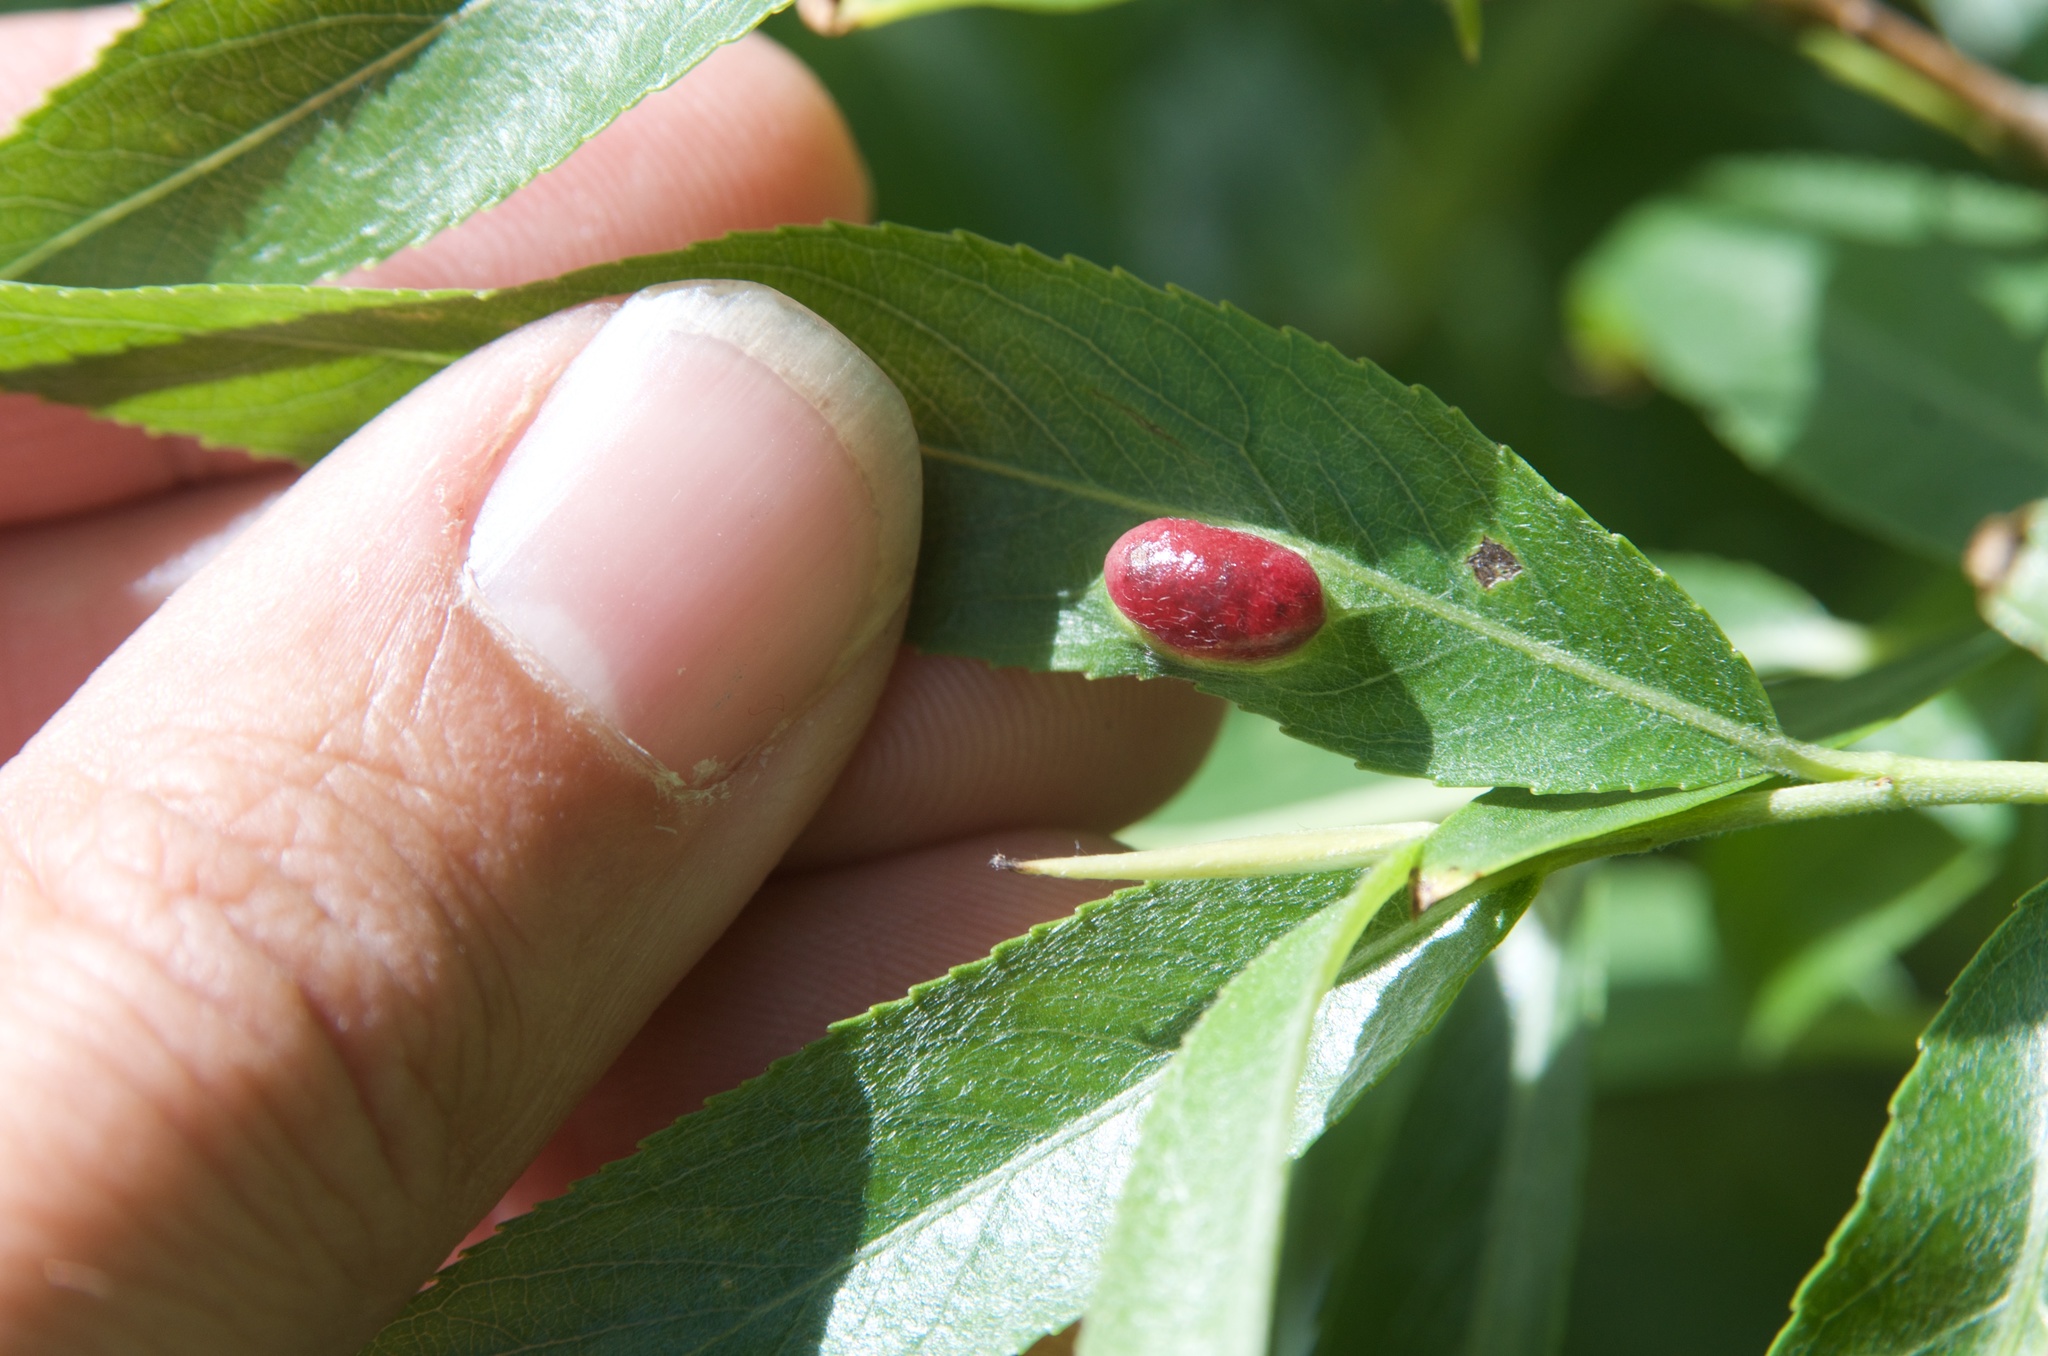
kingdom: Animalia
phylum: Arthropoda
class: Insecta
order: Hymenoptera
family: Tenthredinidae
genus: Pontania
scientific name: Pontania proxima
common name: Common sawfly
